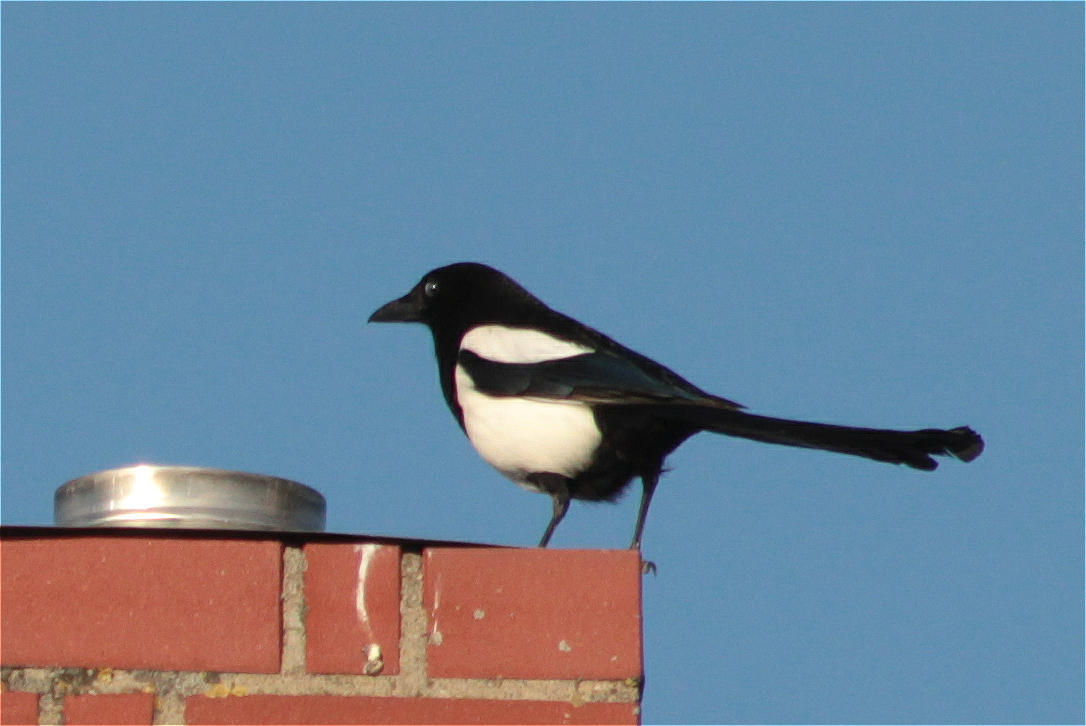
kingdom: Animalia
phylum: Chordata
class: Aves
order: Passeriformes
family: Corvidae
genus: Pica
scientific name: Pica pica
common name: Eurasian magpie
